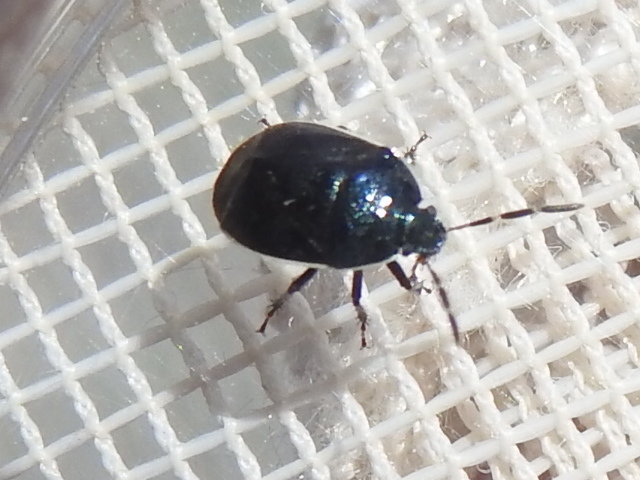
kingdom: Animalia
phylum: Arthropoda
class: Insecta
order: Hemiptera
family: Cydnidae
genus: Sehirus
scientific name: Sehirus cinctus
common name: White-margined burrower bug
